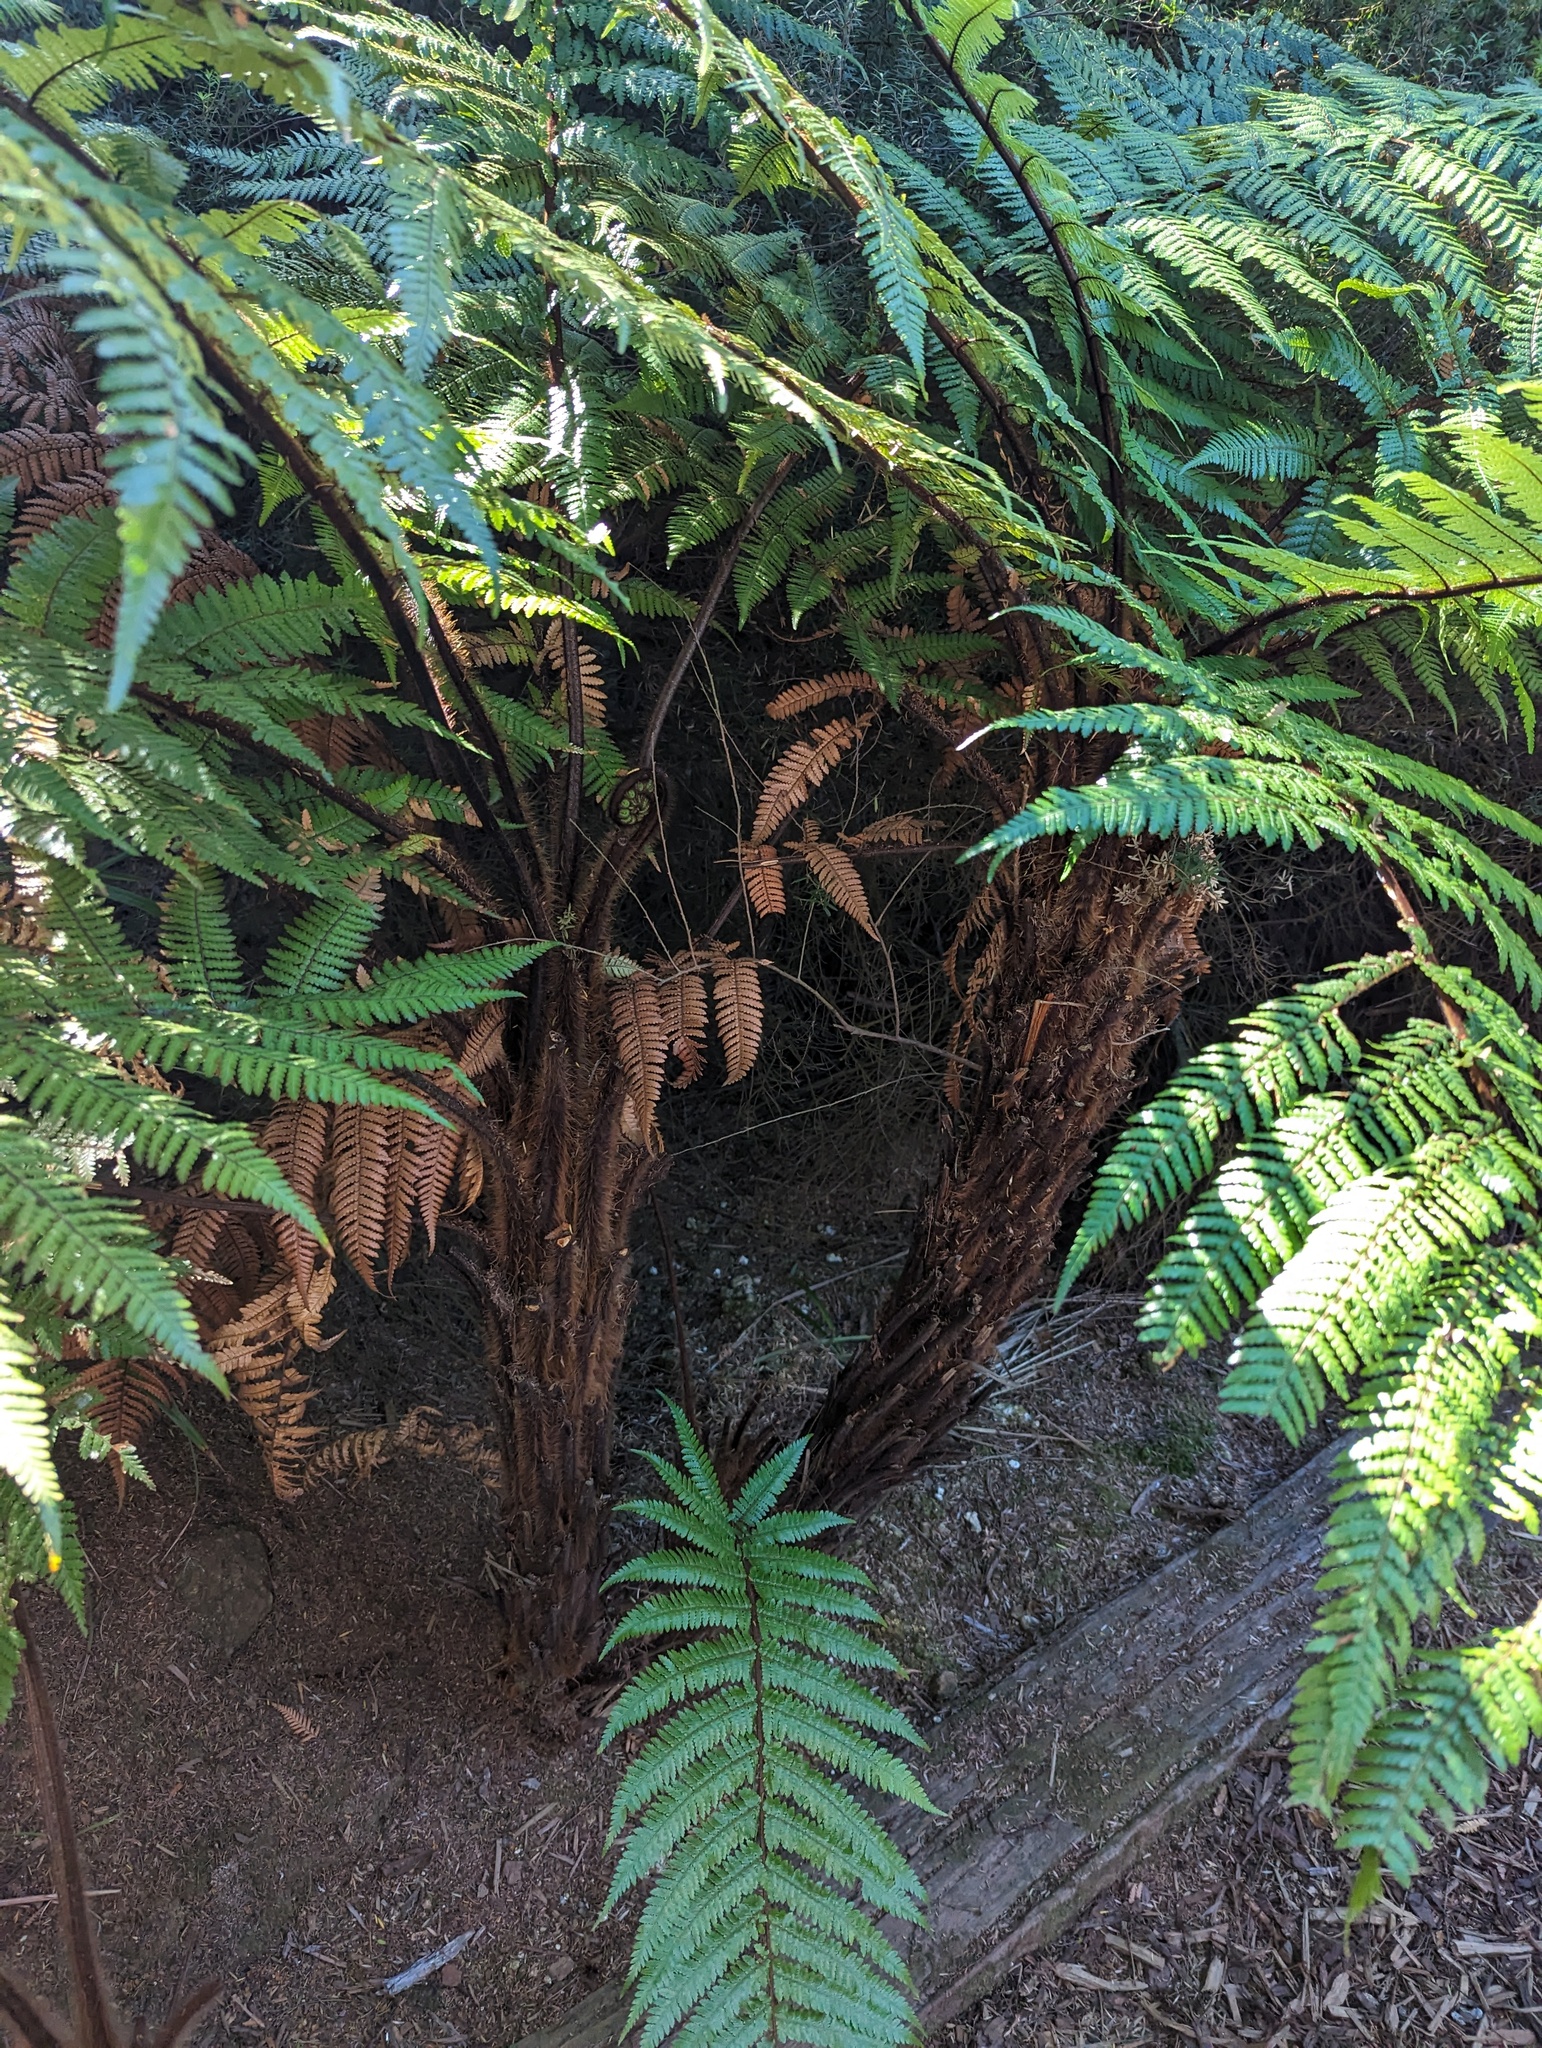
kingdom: Plantae
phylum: Tracheophyta
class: Polypodiopsida
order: Cyatheales
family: Dicksoniaceae
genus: Dicksonia
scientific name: Dicksonia squarrosa
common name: Hard treefern
